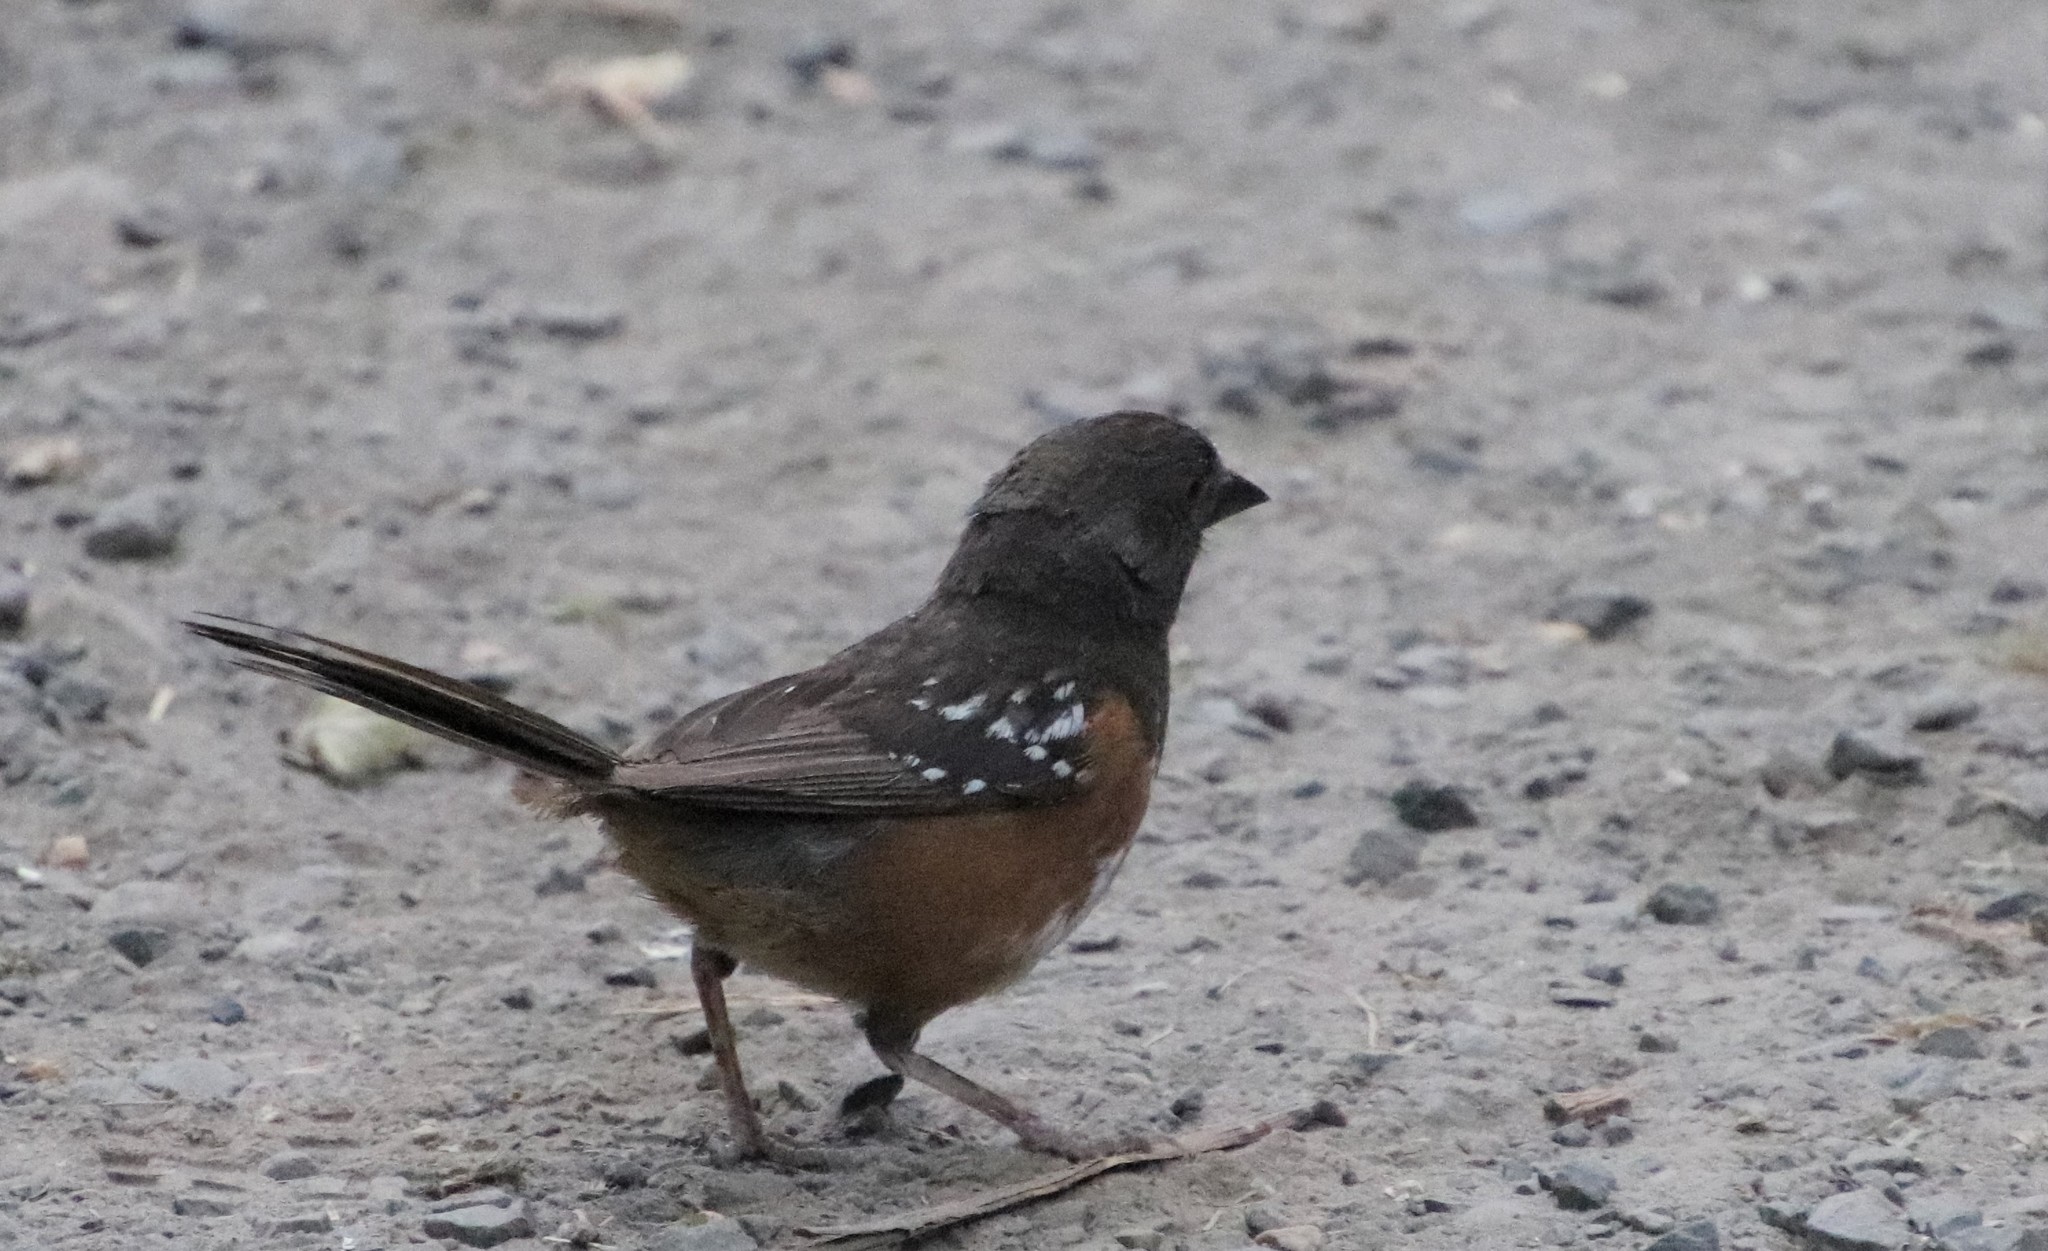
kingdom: Animalia
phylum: Chordata
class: Aves
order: Passeriformes
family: Passerellidae
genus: Pipilo
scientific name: Pipilo maculatus
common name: Spotted towhee
